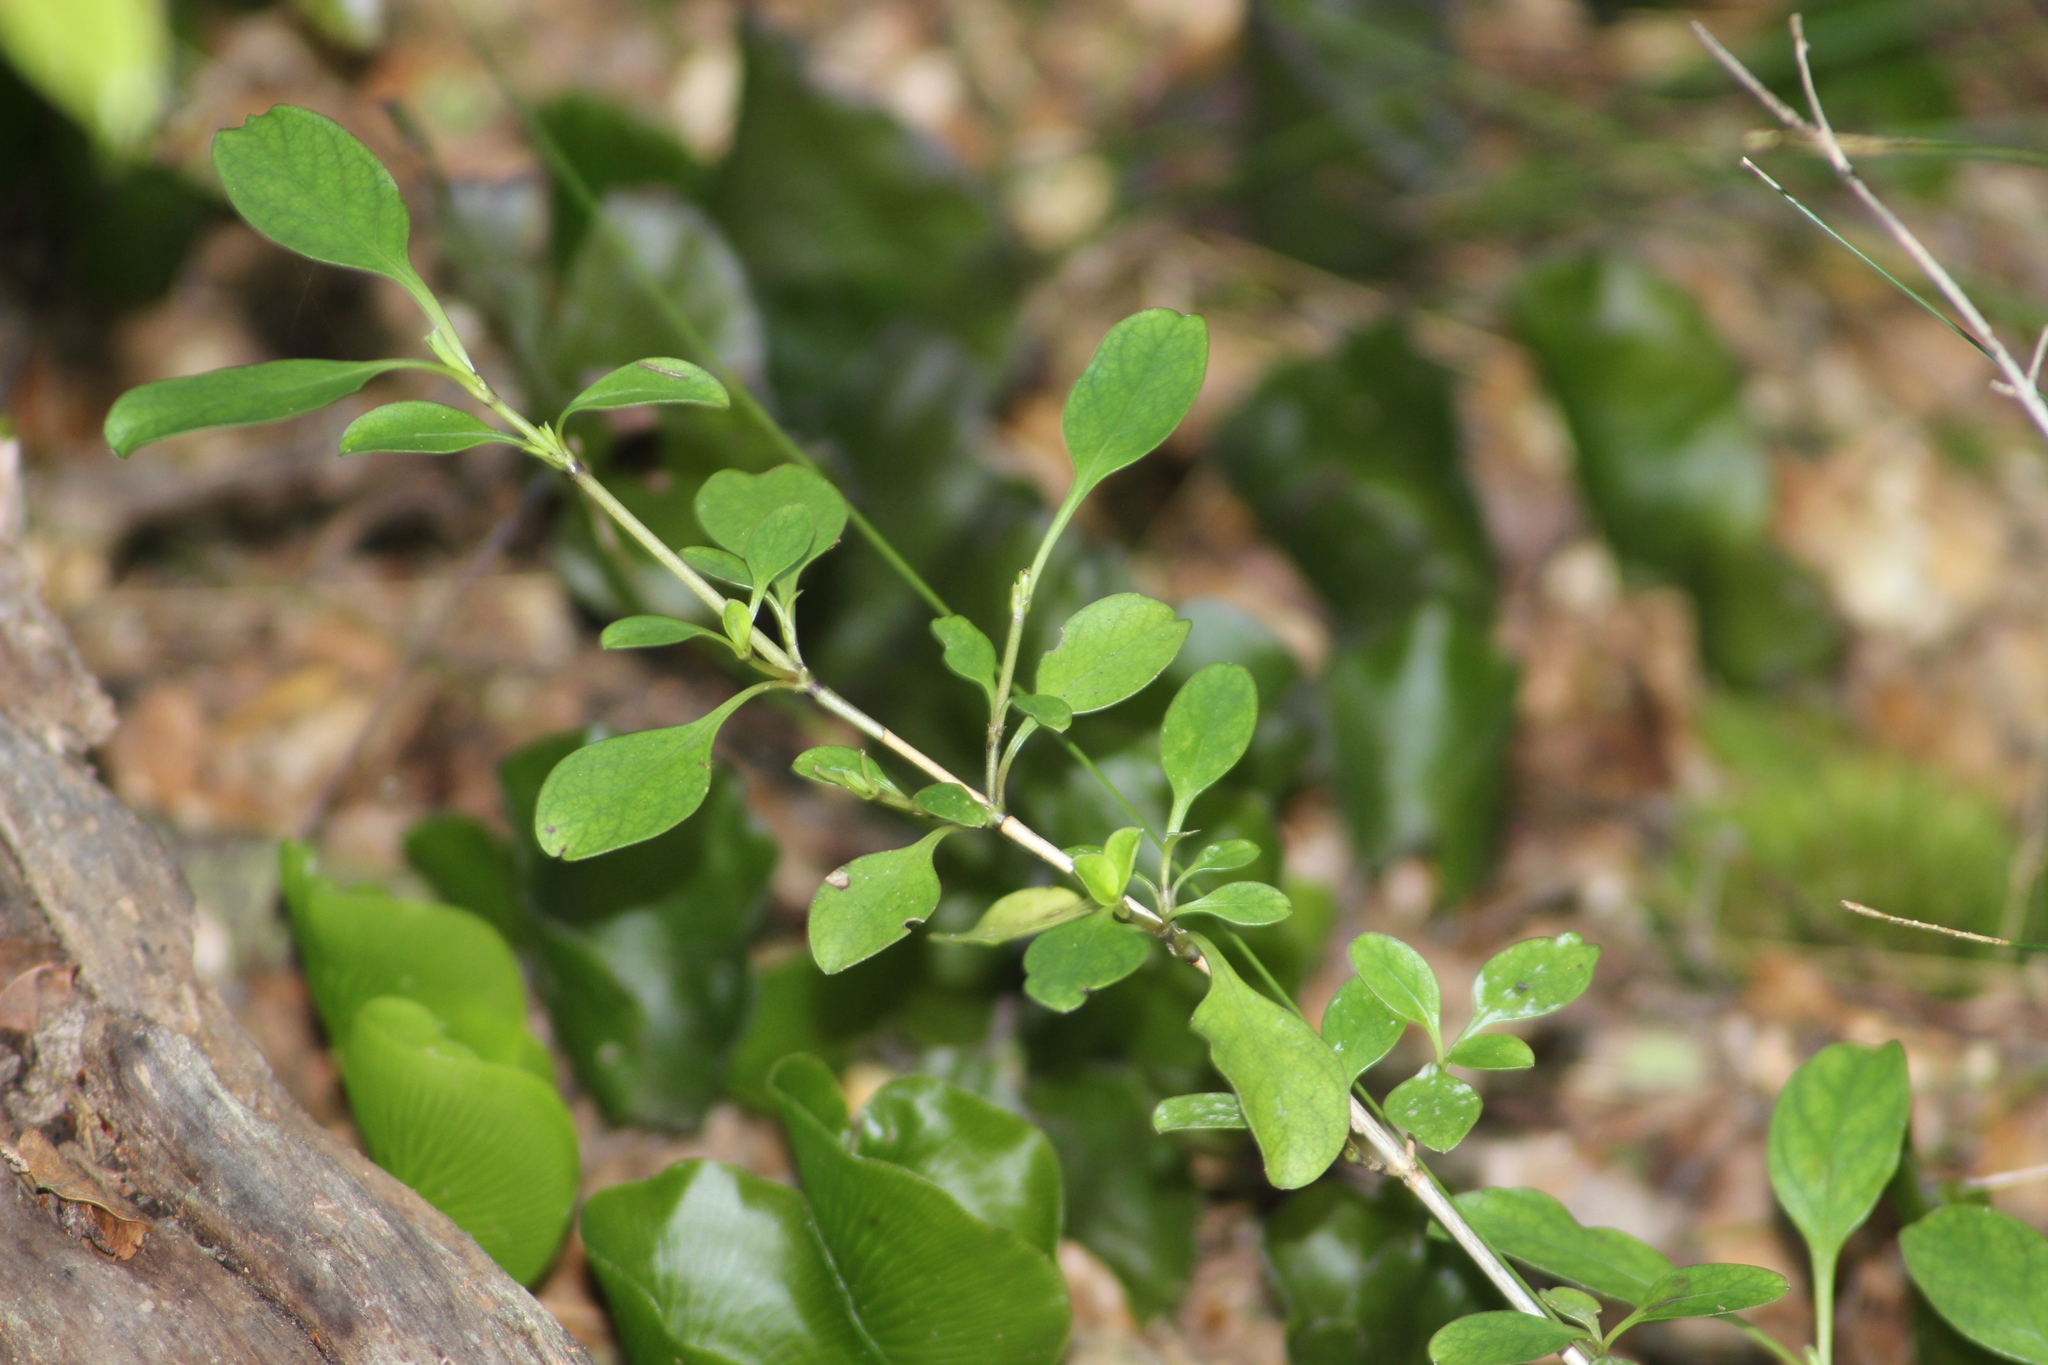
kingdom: Plantae
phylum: Tracheophyta
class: Magnoliopsida
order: Gentianales
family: Rubiaceae
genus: Coprosma
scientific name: Coprosma foetidissima
